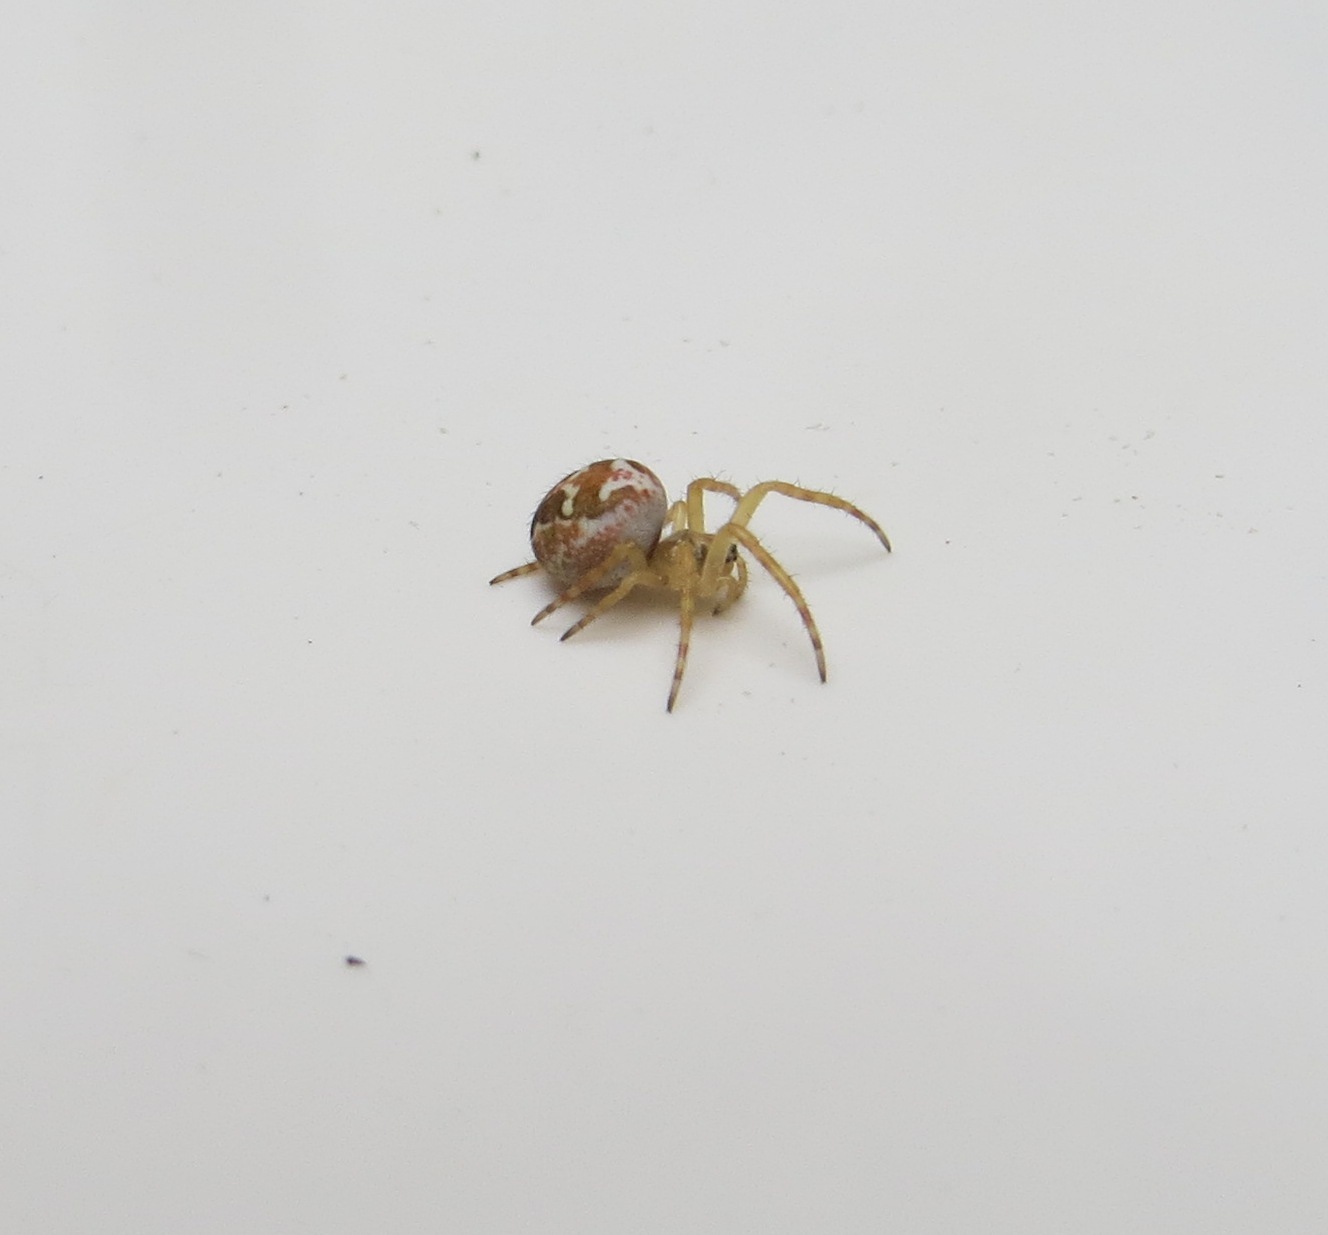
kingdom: Animalia
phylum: Arthropoda
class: Arachnida
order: Araneae
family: Araneidae
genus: Colaranea
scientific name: Colaranea verutum
